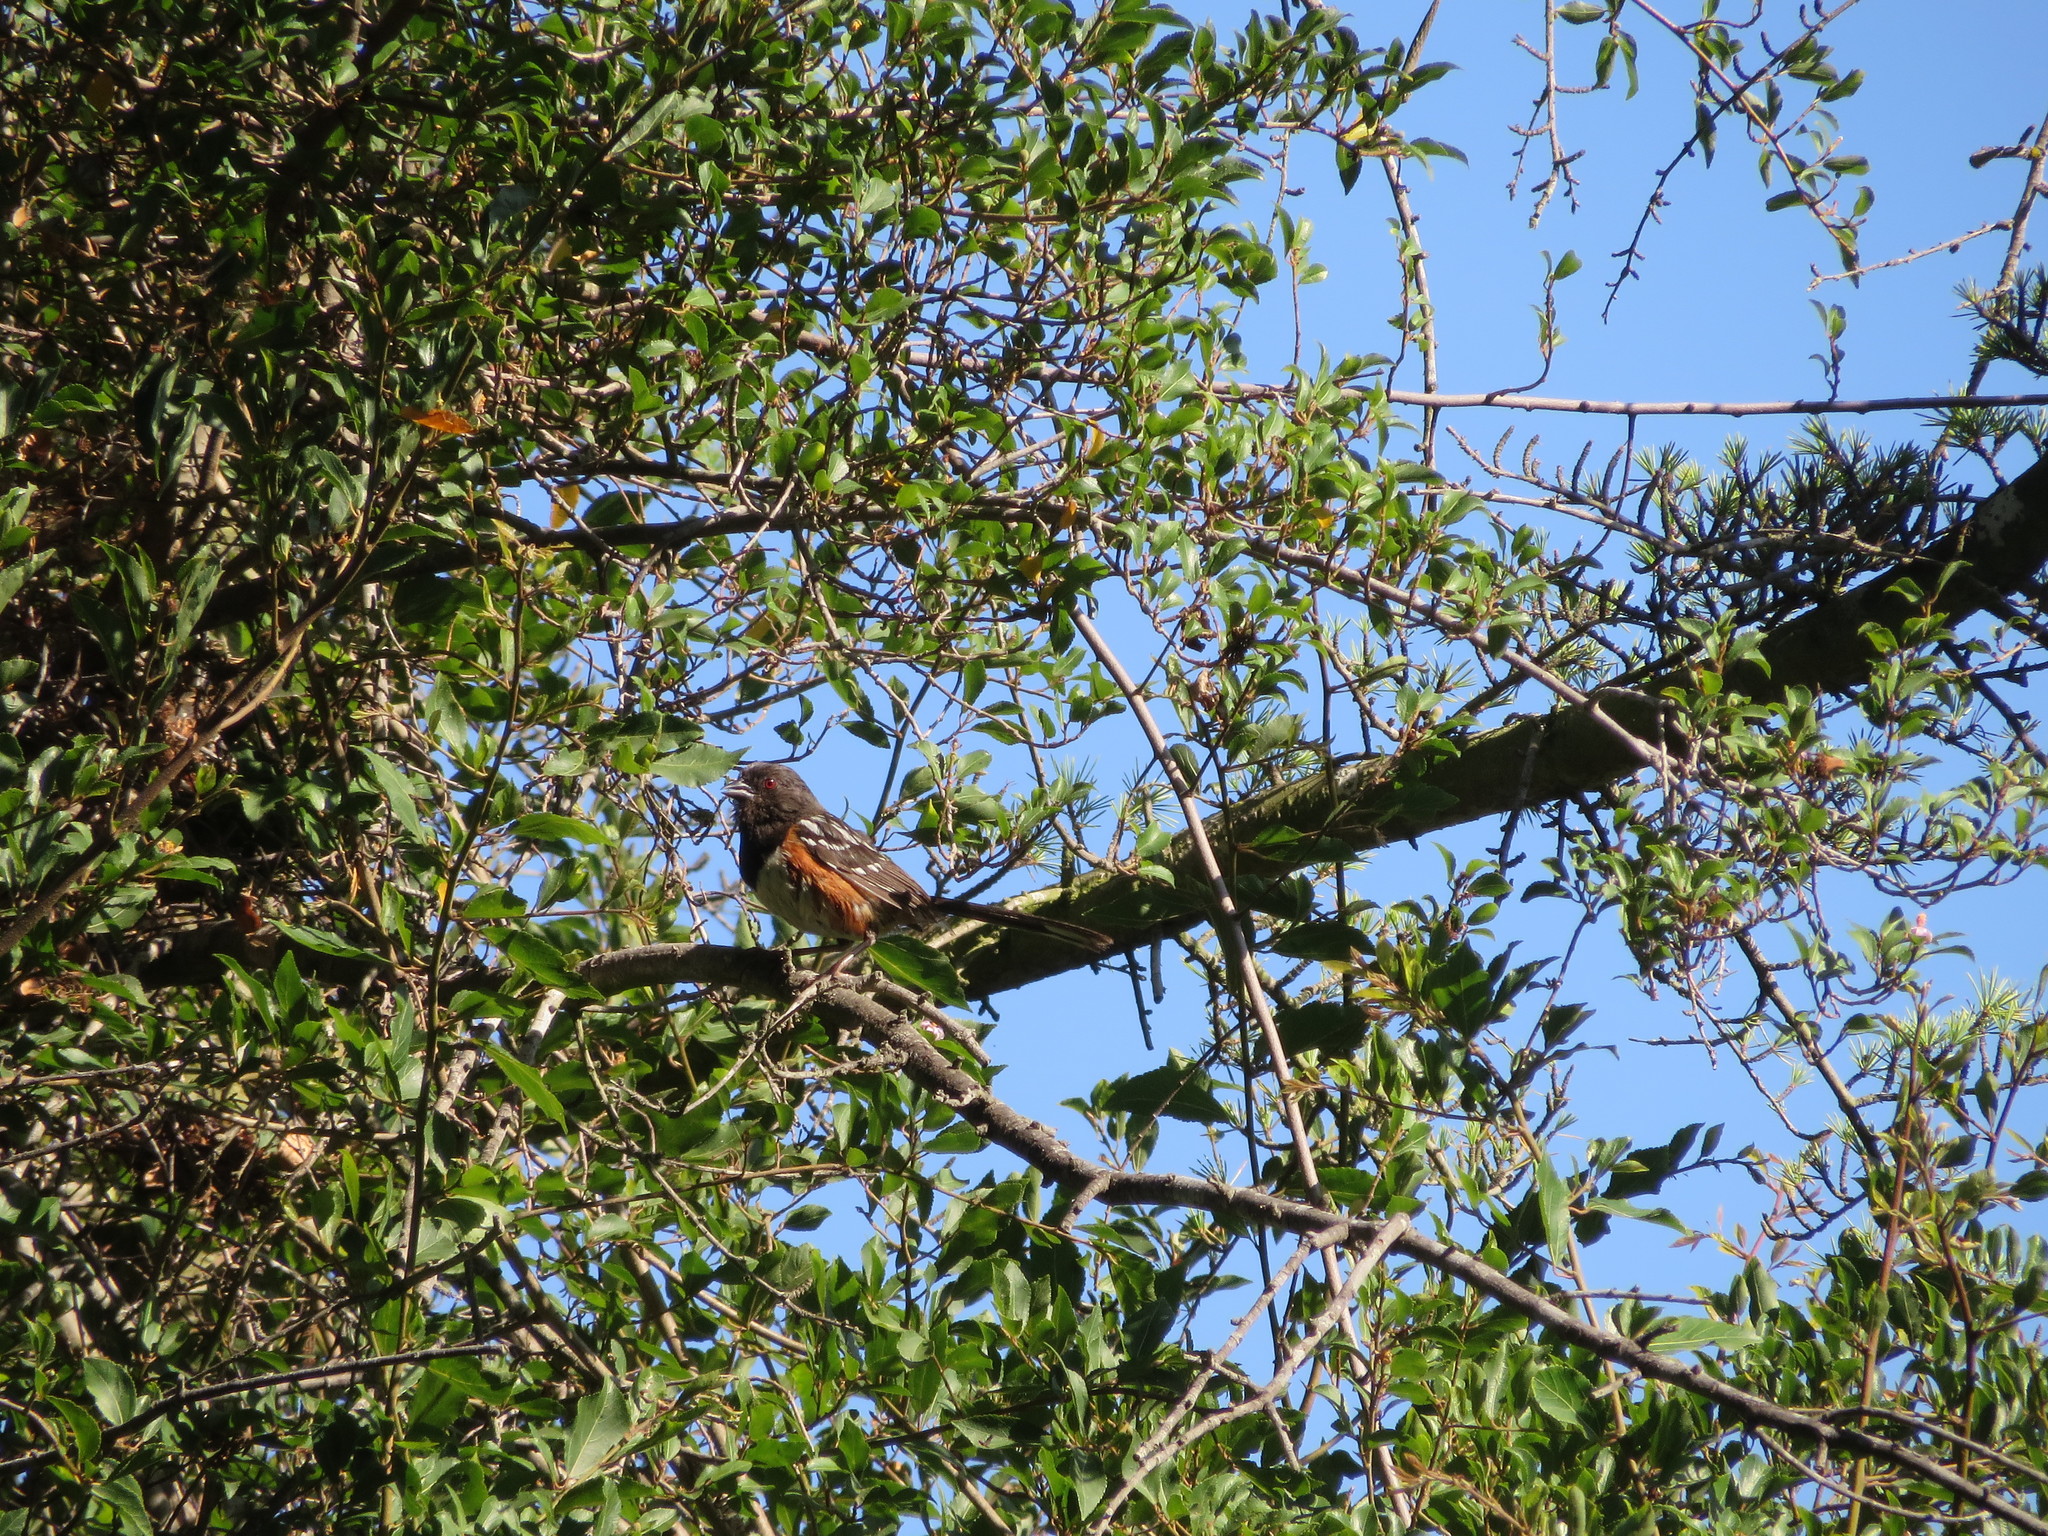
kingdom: Animalia
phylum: Chordata
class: Aves
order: Passeriformes
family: Passerellidae
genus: Pipilo
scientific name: Pipilo maculatus
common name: Spotted towhee
